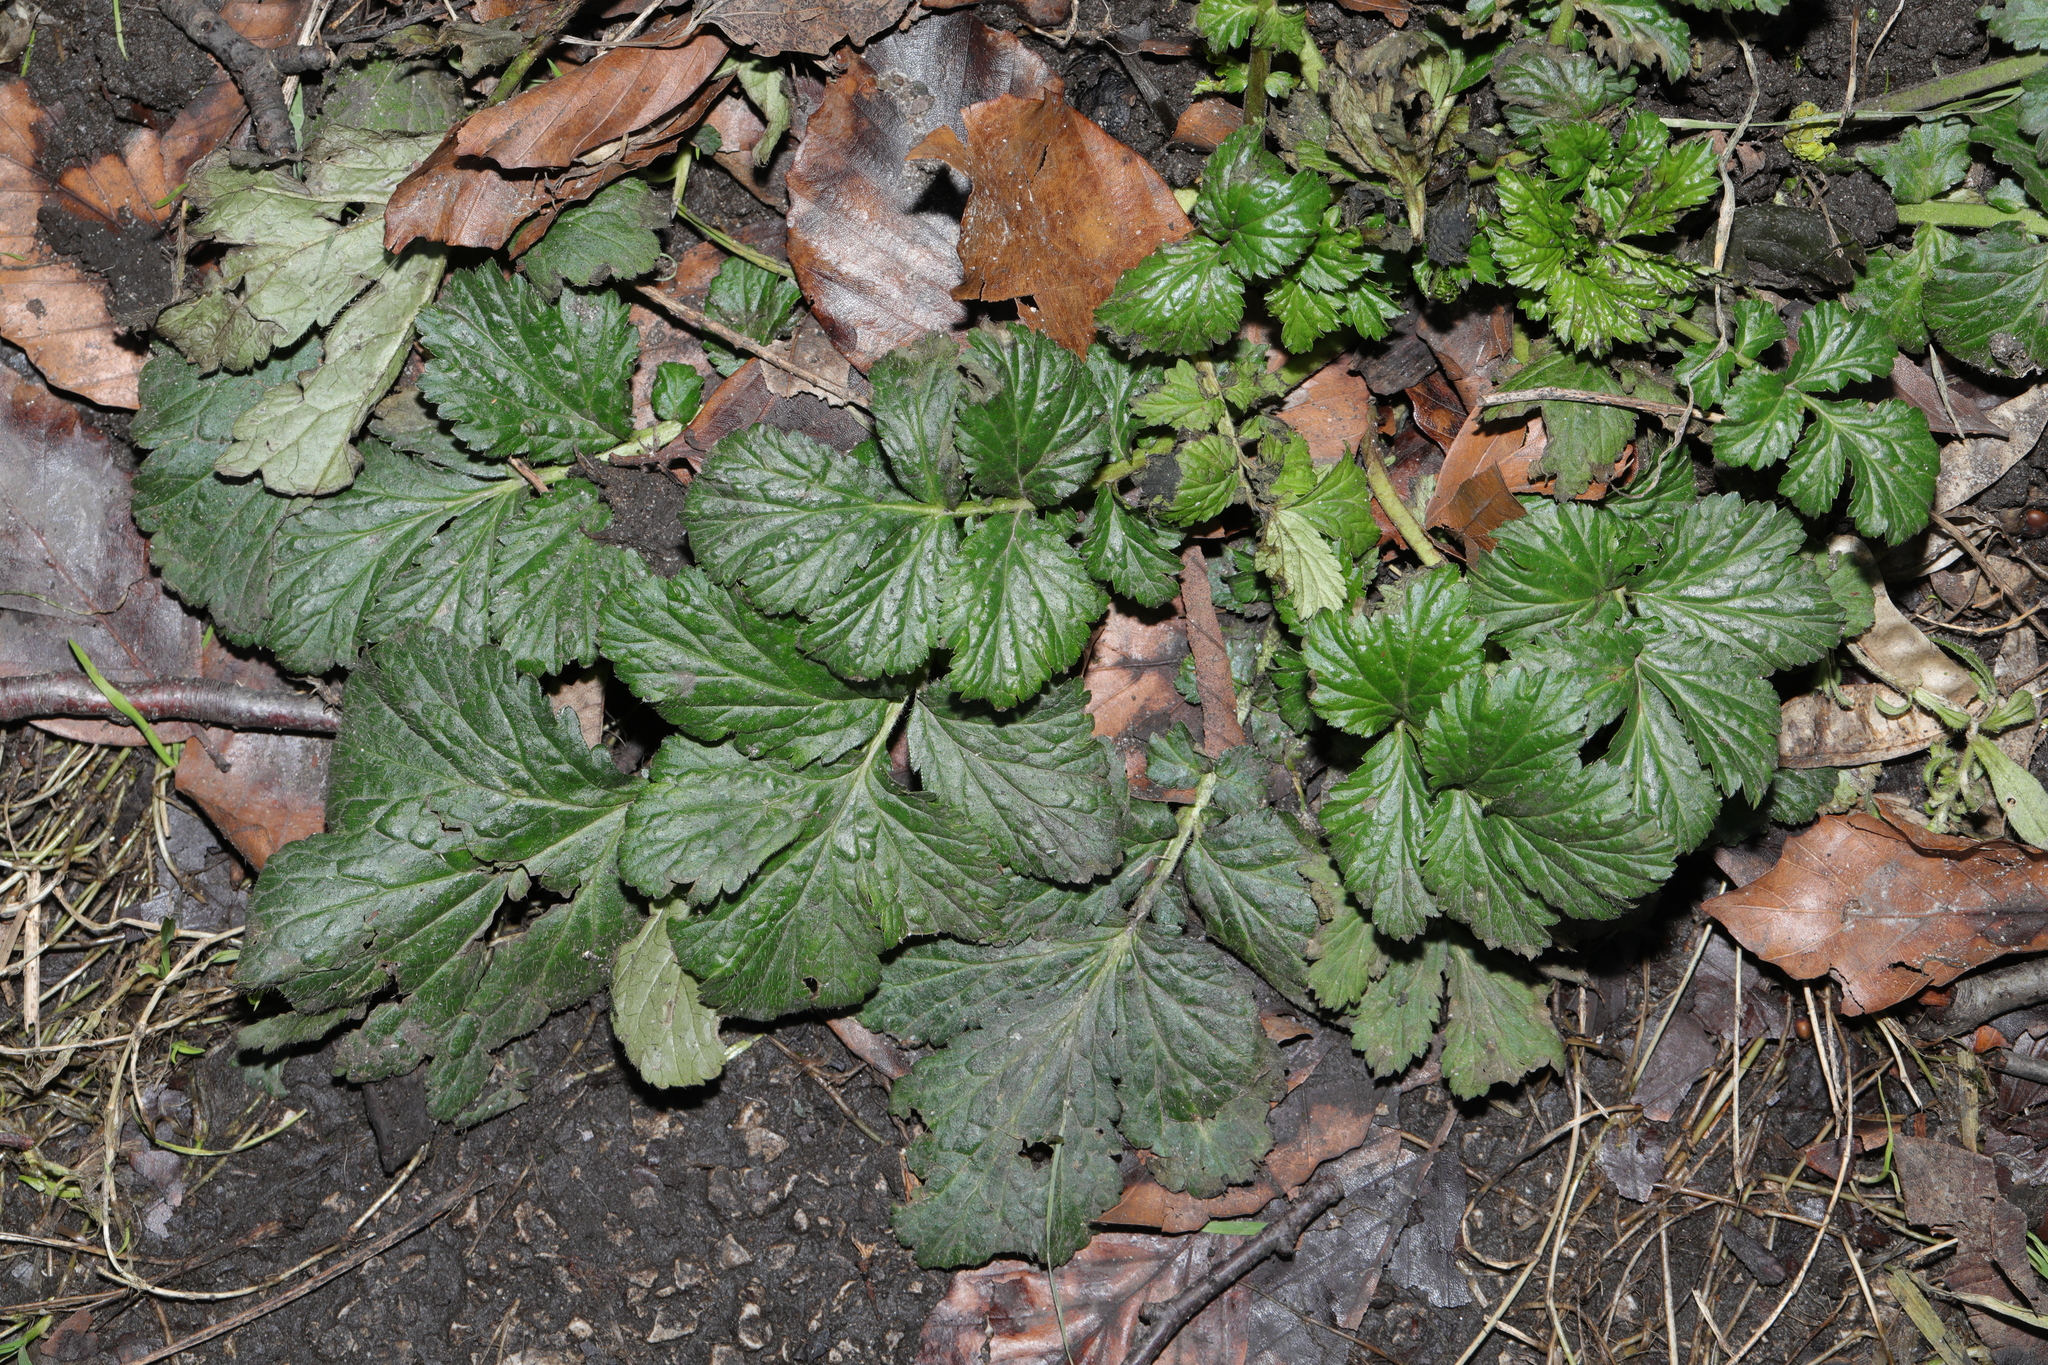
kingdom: Plantae
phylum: Tracheophyta
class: Magnoliopsida
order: Rosales
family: Rosaceae
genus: Geum
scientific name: Geum urbanum
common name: Wood avens
